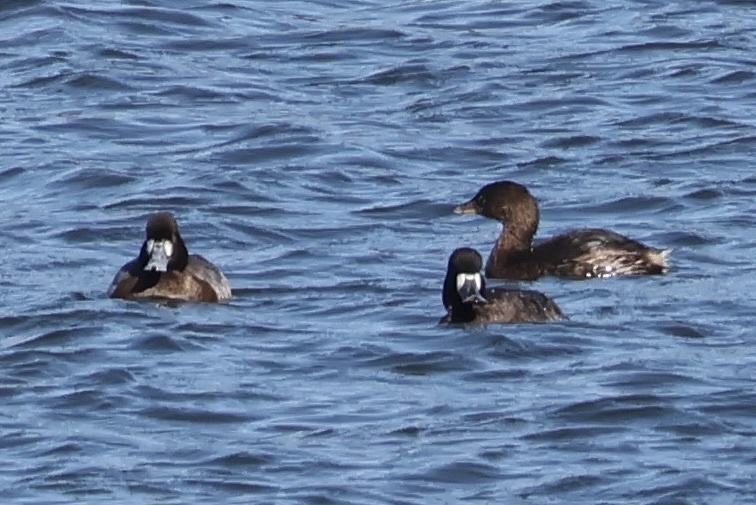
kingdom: Animalia
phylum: Chordata
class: Aves
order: Anseriformes
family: Anatidae
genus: Aythya
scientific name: Aythya affinis
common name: Lesser scaup
